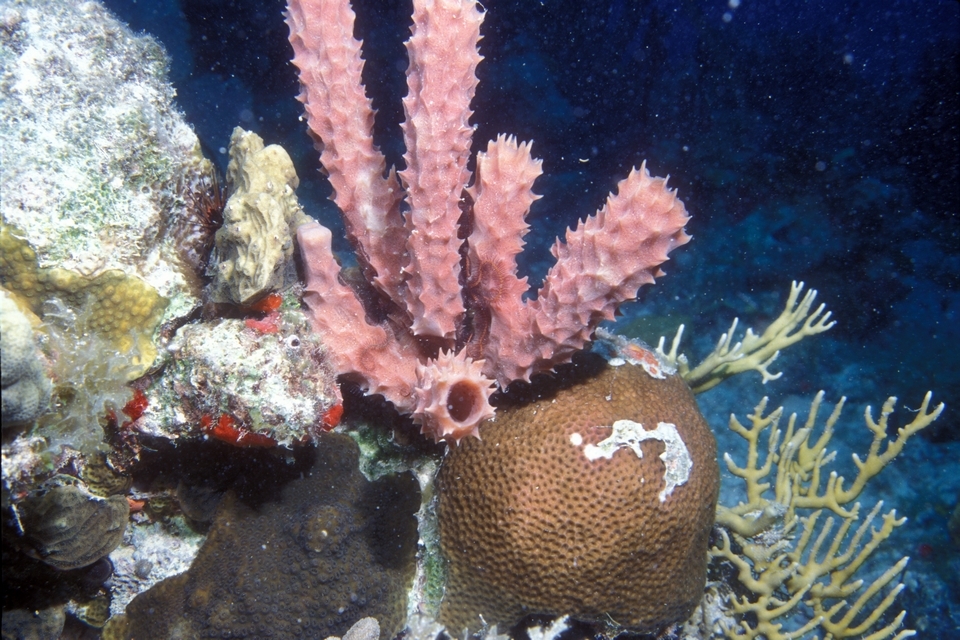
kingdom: Animalia
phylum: Porifera
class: Demospongiae
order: Haplosclerida
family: Callyspongiidae
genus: Callyspongia
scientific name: Callyspongia aculeata
